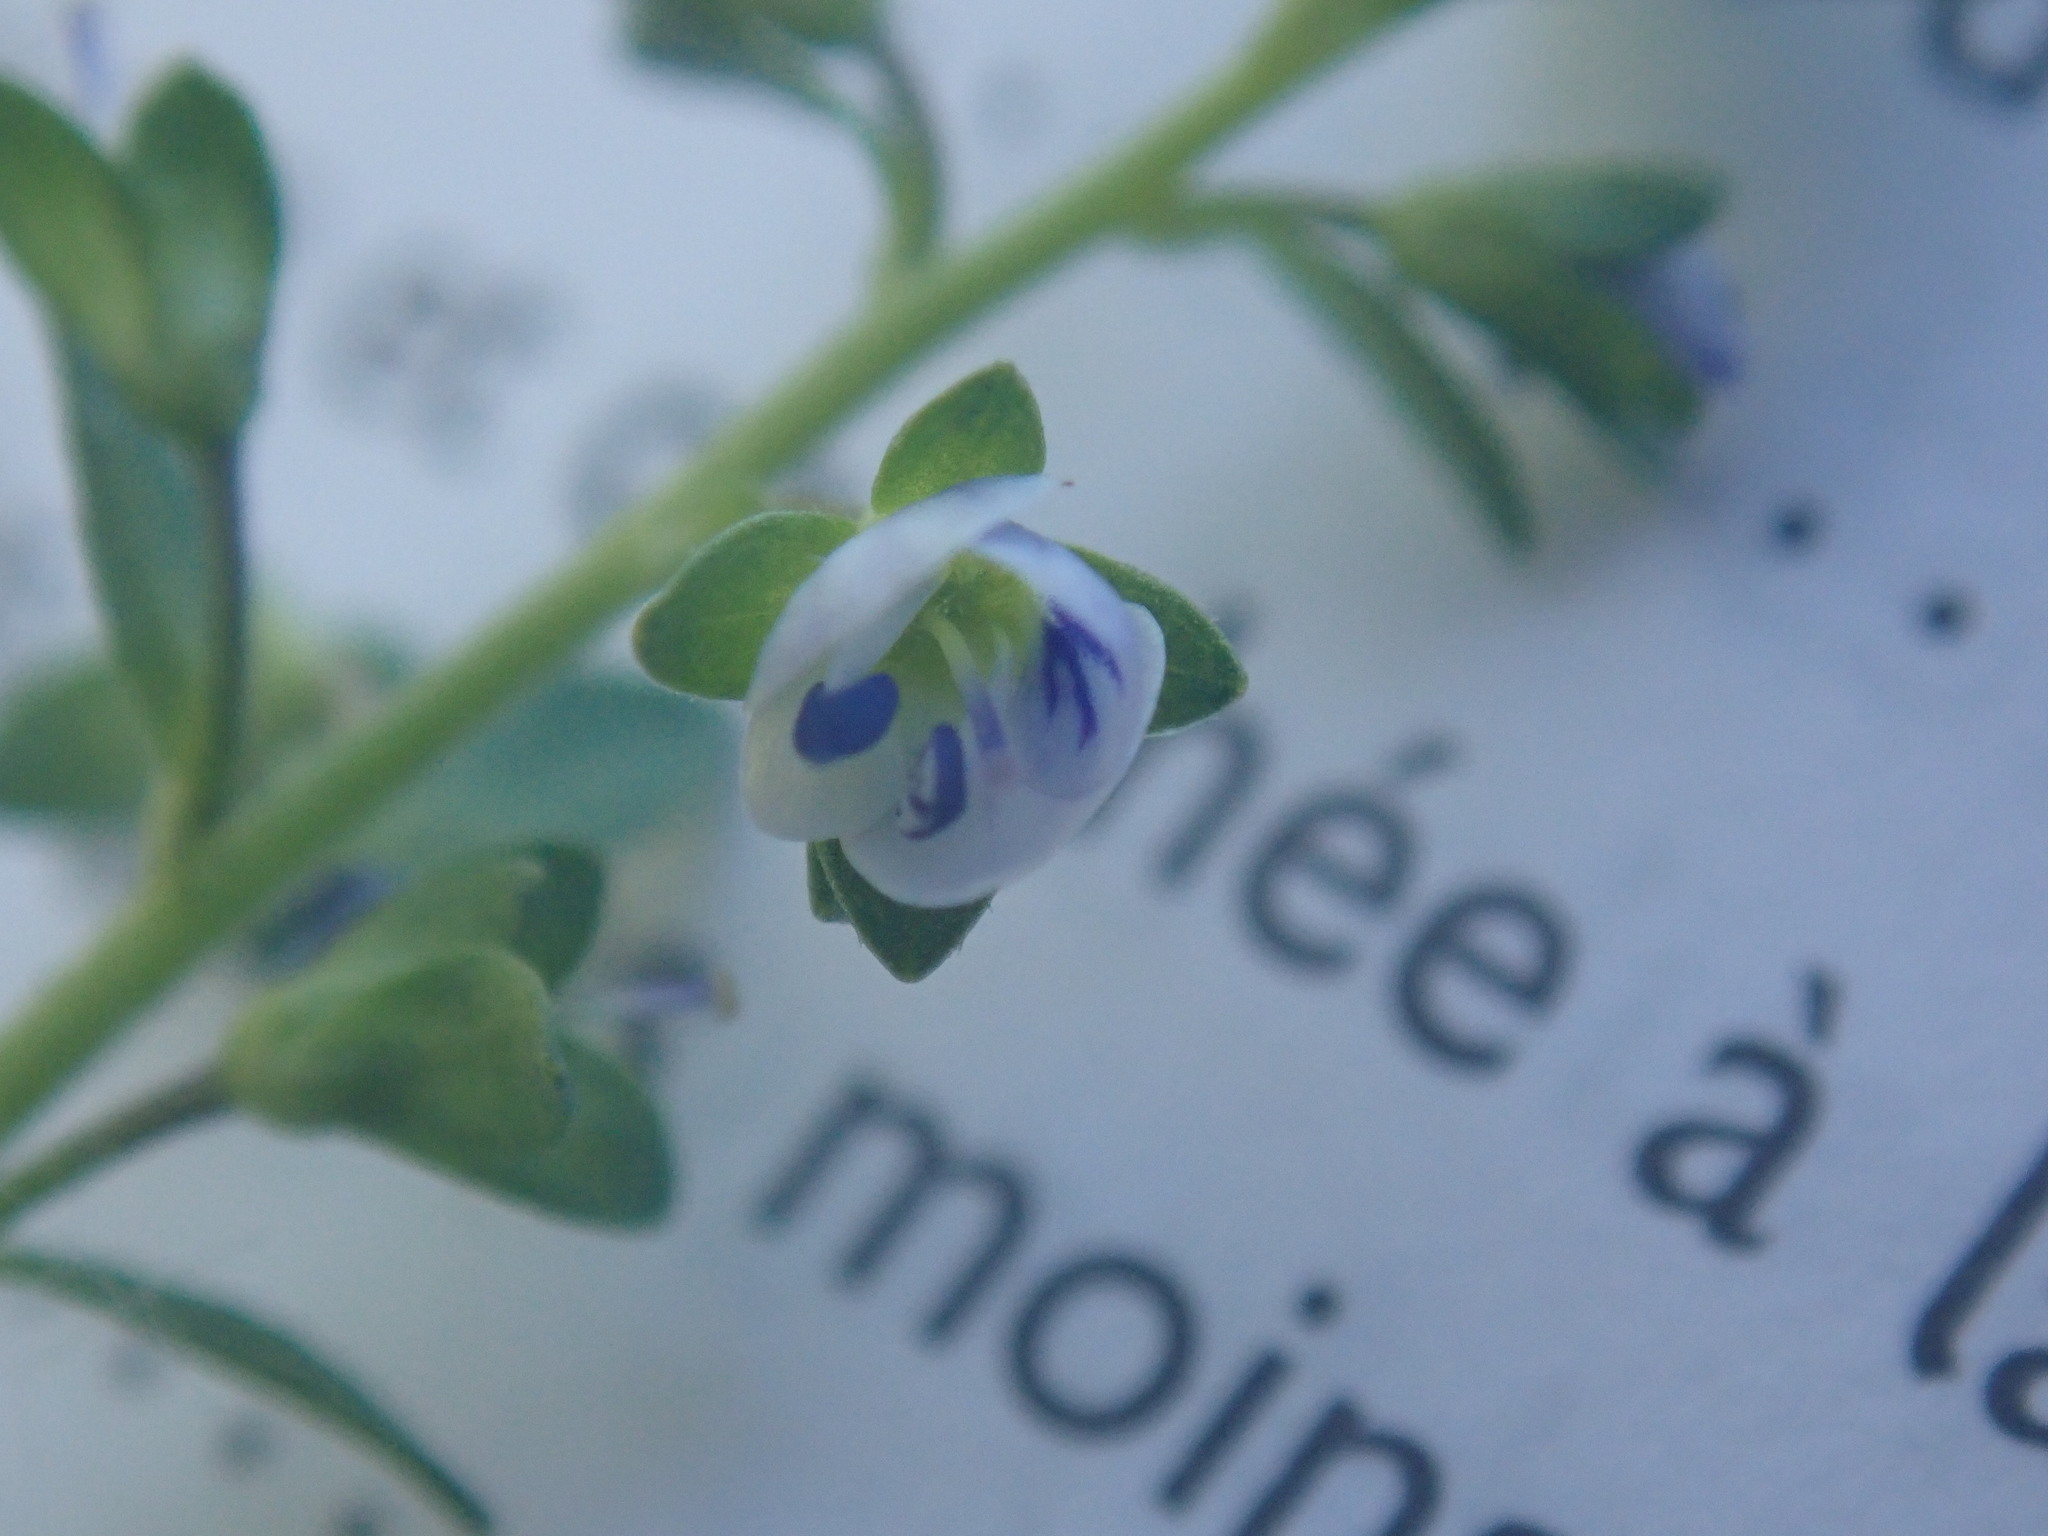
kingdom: Plantae
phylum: Tracheophyta
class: Magnoliopsida
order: Lamiales
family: Plantaginaceae
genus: Veronica
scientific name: Veronica serpyllifolia
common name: Thyme-leaved speedwell
